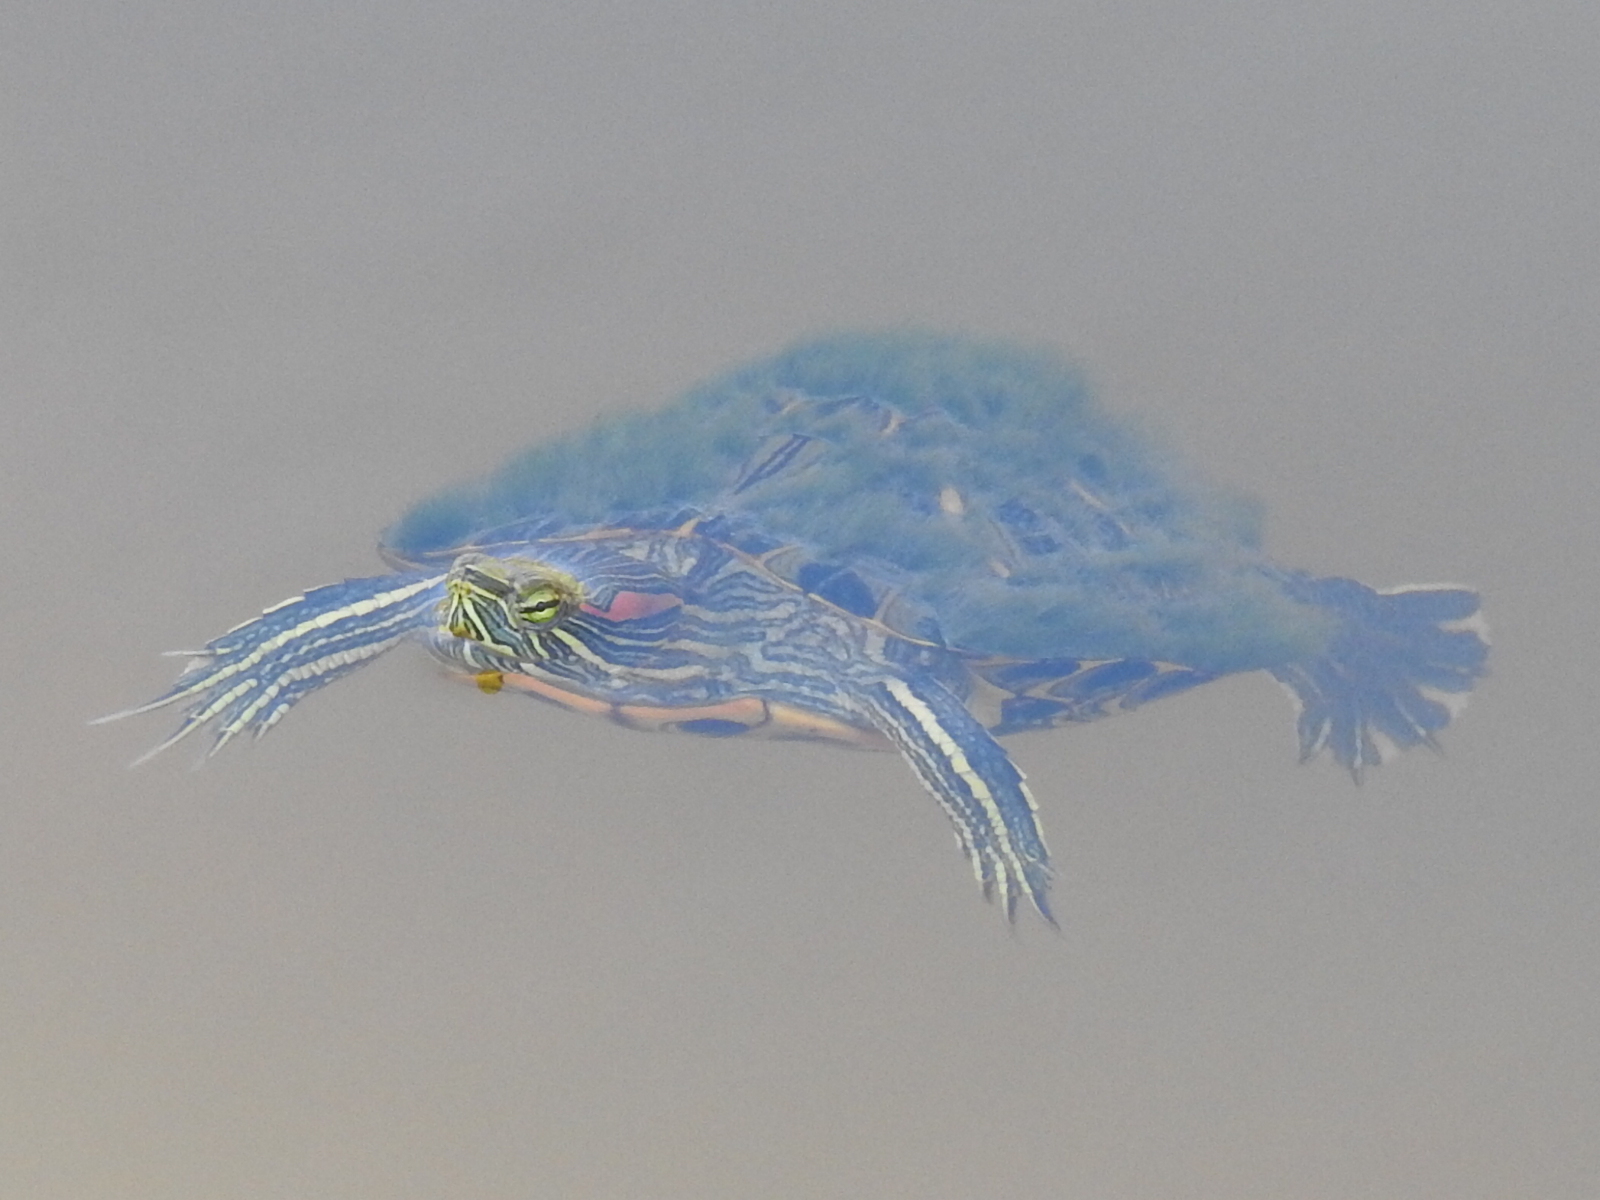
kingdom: Animalia
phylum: Chordata
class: Testudines
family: Emydidae
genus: Trachemys
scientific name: Trachemys scripta
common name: Slider
